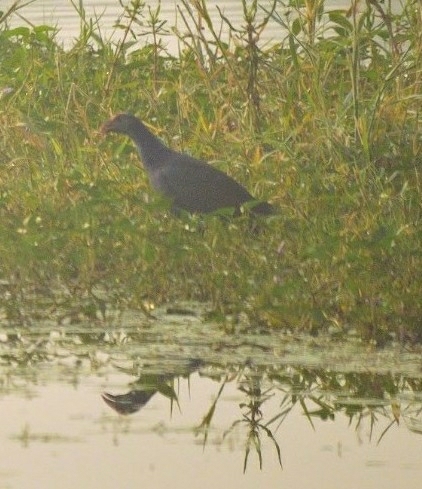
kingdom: Animalia
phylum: Chordata
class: Aves
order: Gruiformes
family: Rallidae
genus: Porphyrio
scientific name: Porphyrio porphyrio
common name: Purple swamphen
